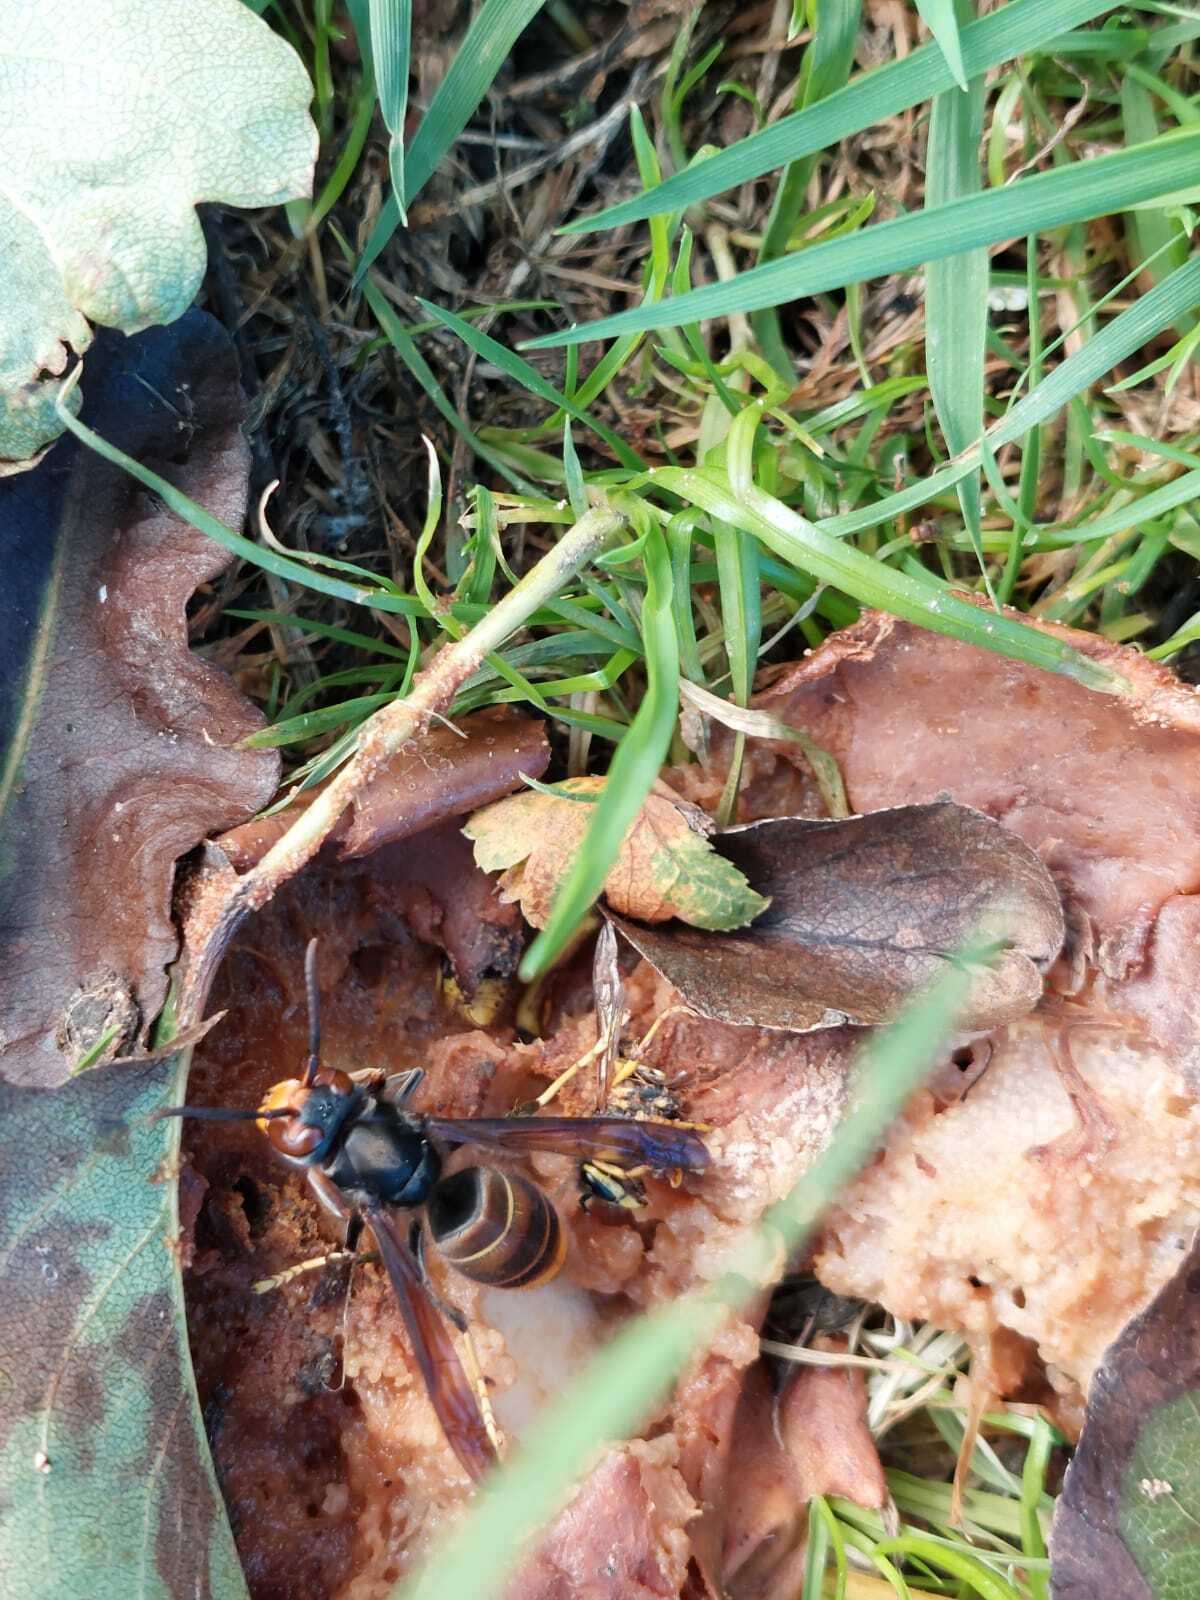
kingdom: Animalia
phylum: Arthropoda
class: Insecta
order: Hymenoptera
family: Vespidae
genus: Vespa
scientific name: Vespa crabro
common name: Hornet
